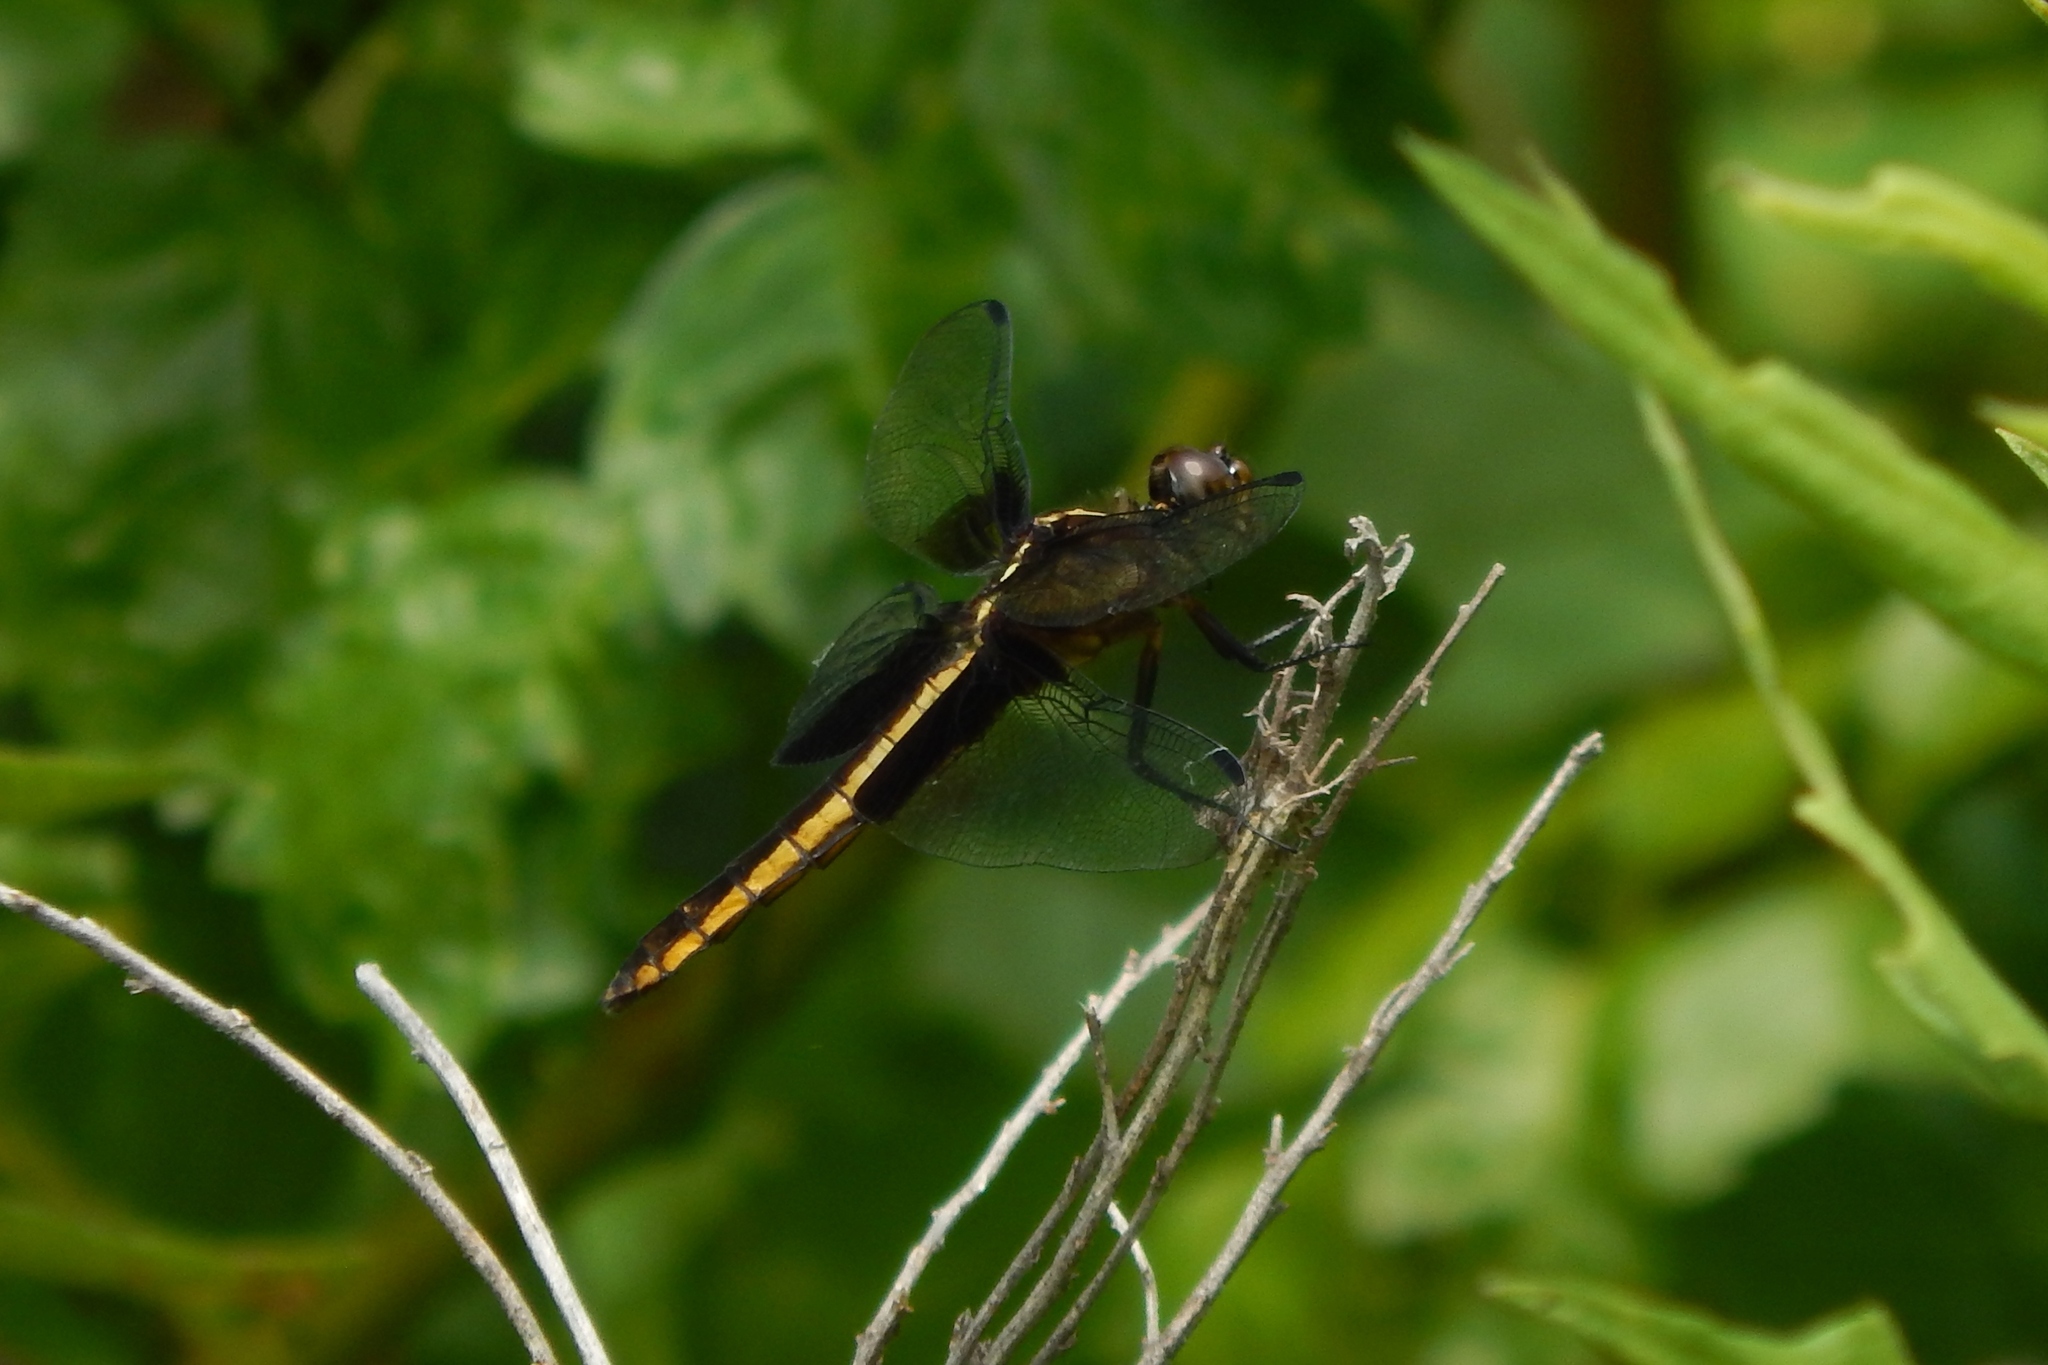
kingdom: Animalia
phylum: Arthropoda
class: Insecta
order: Odonata
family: Libellulidae
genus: Libellula
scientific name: Libellula luctuosa
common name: Widow skimmer
